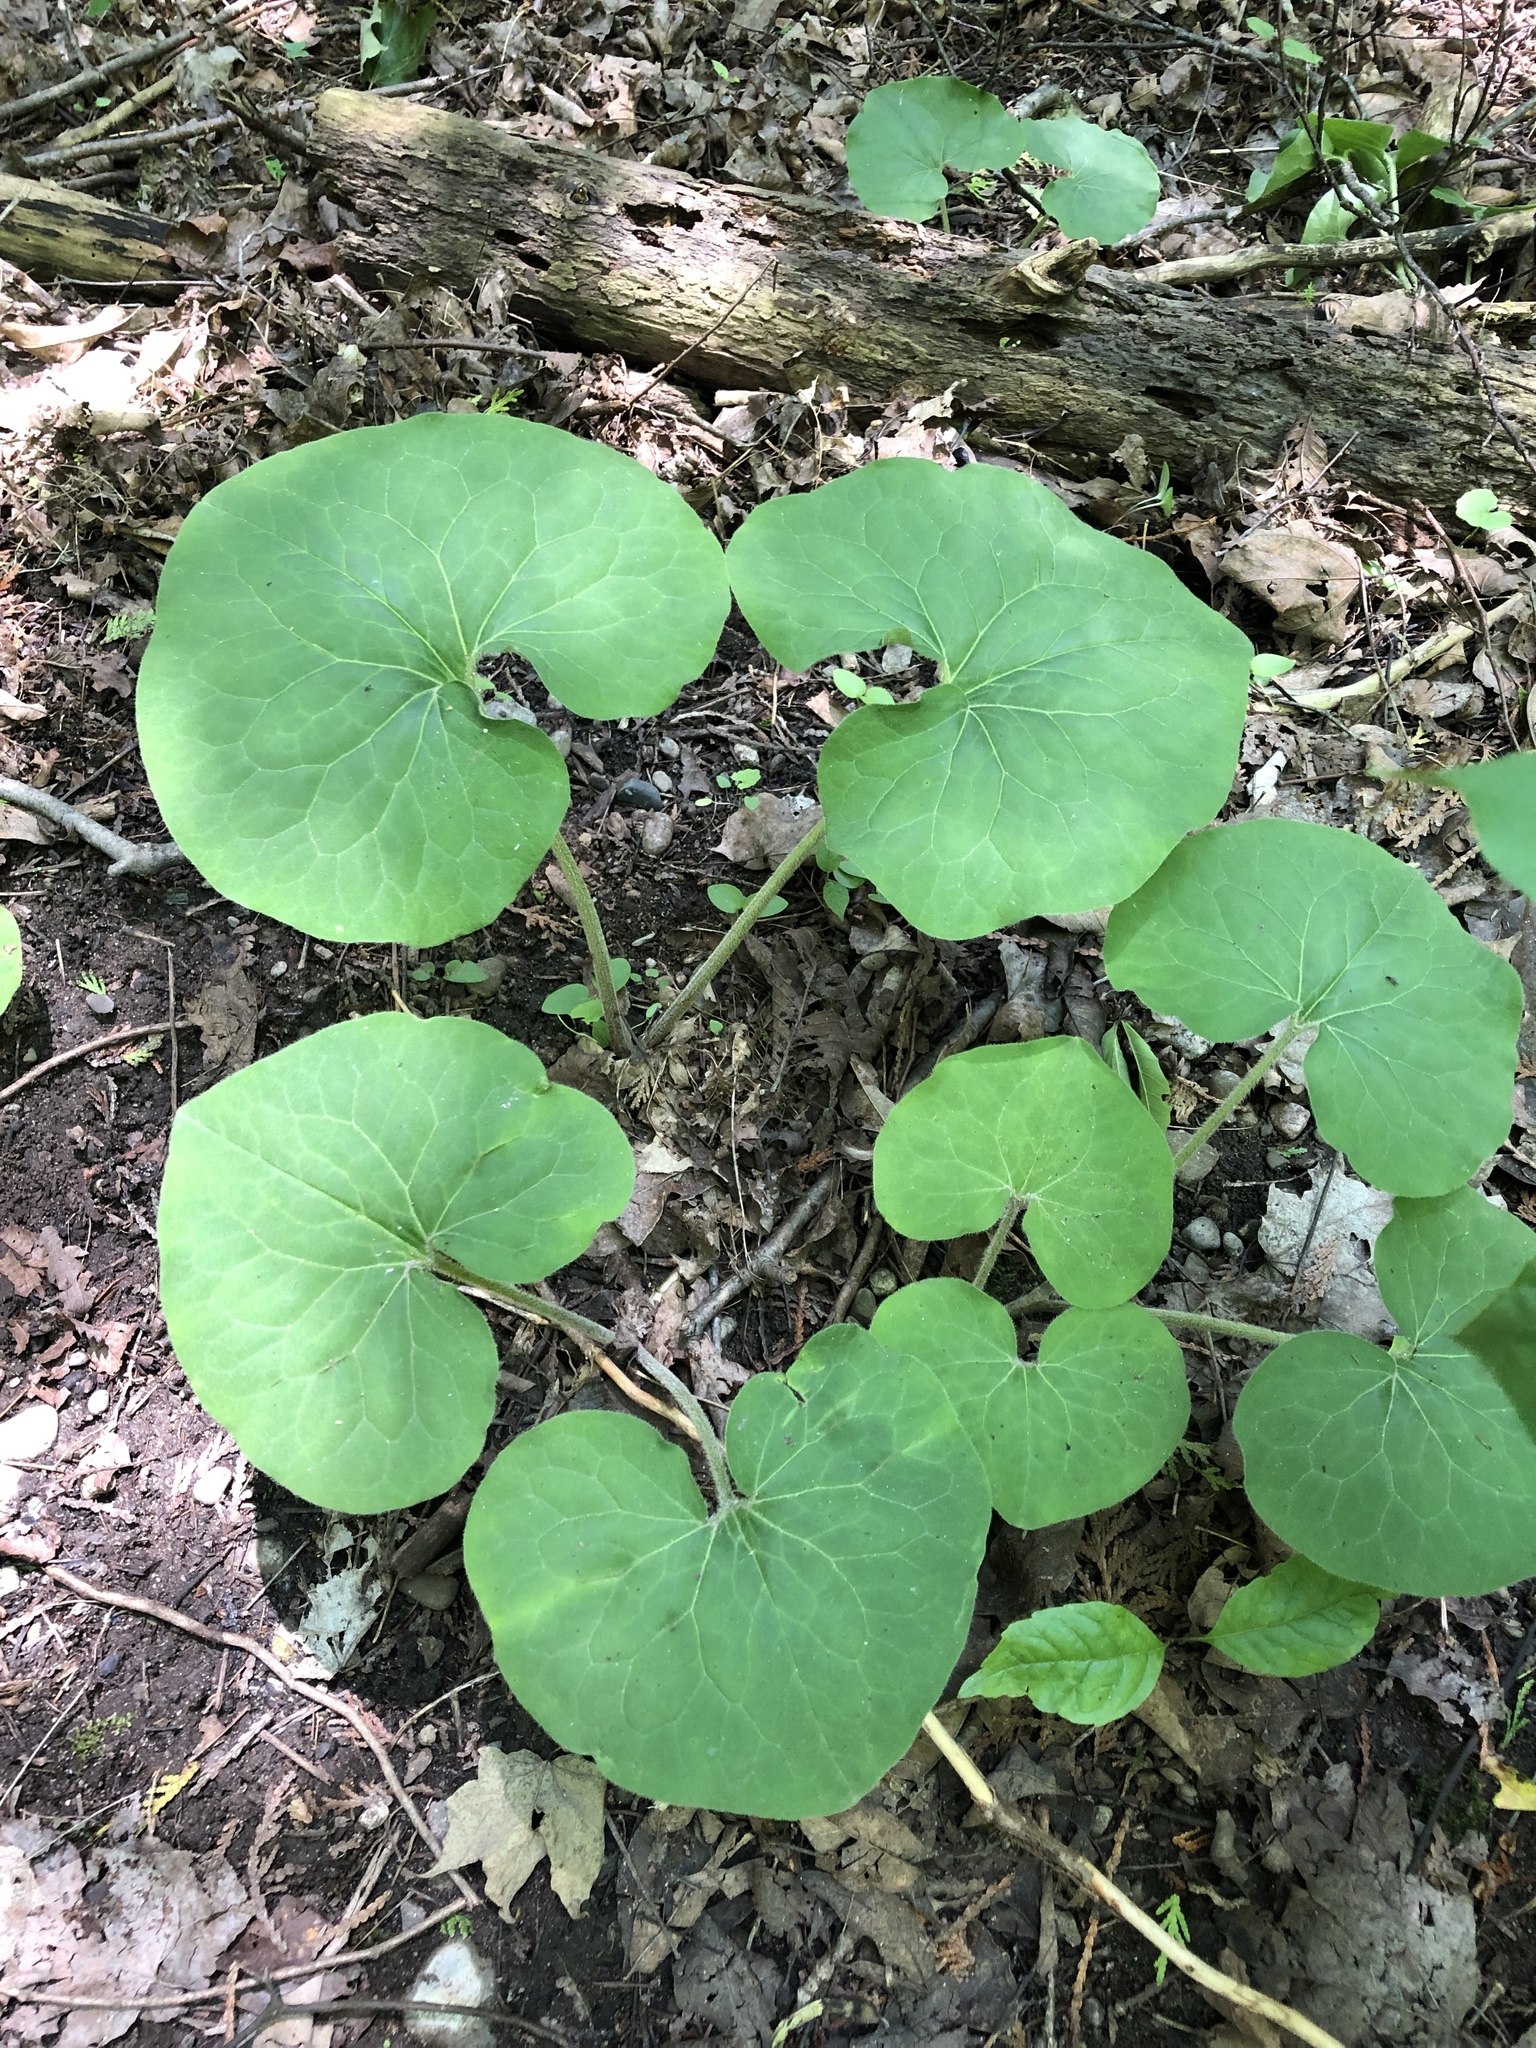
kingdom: Plantae
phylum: Tracheophyta
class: Magnoliopsida
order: Piperales
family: Aristolochiaceae
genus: Asarum
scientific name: Asarum canadense
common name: Wild ginger
